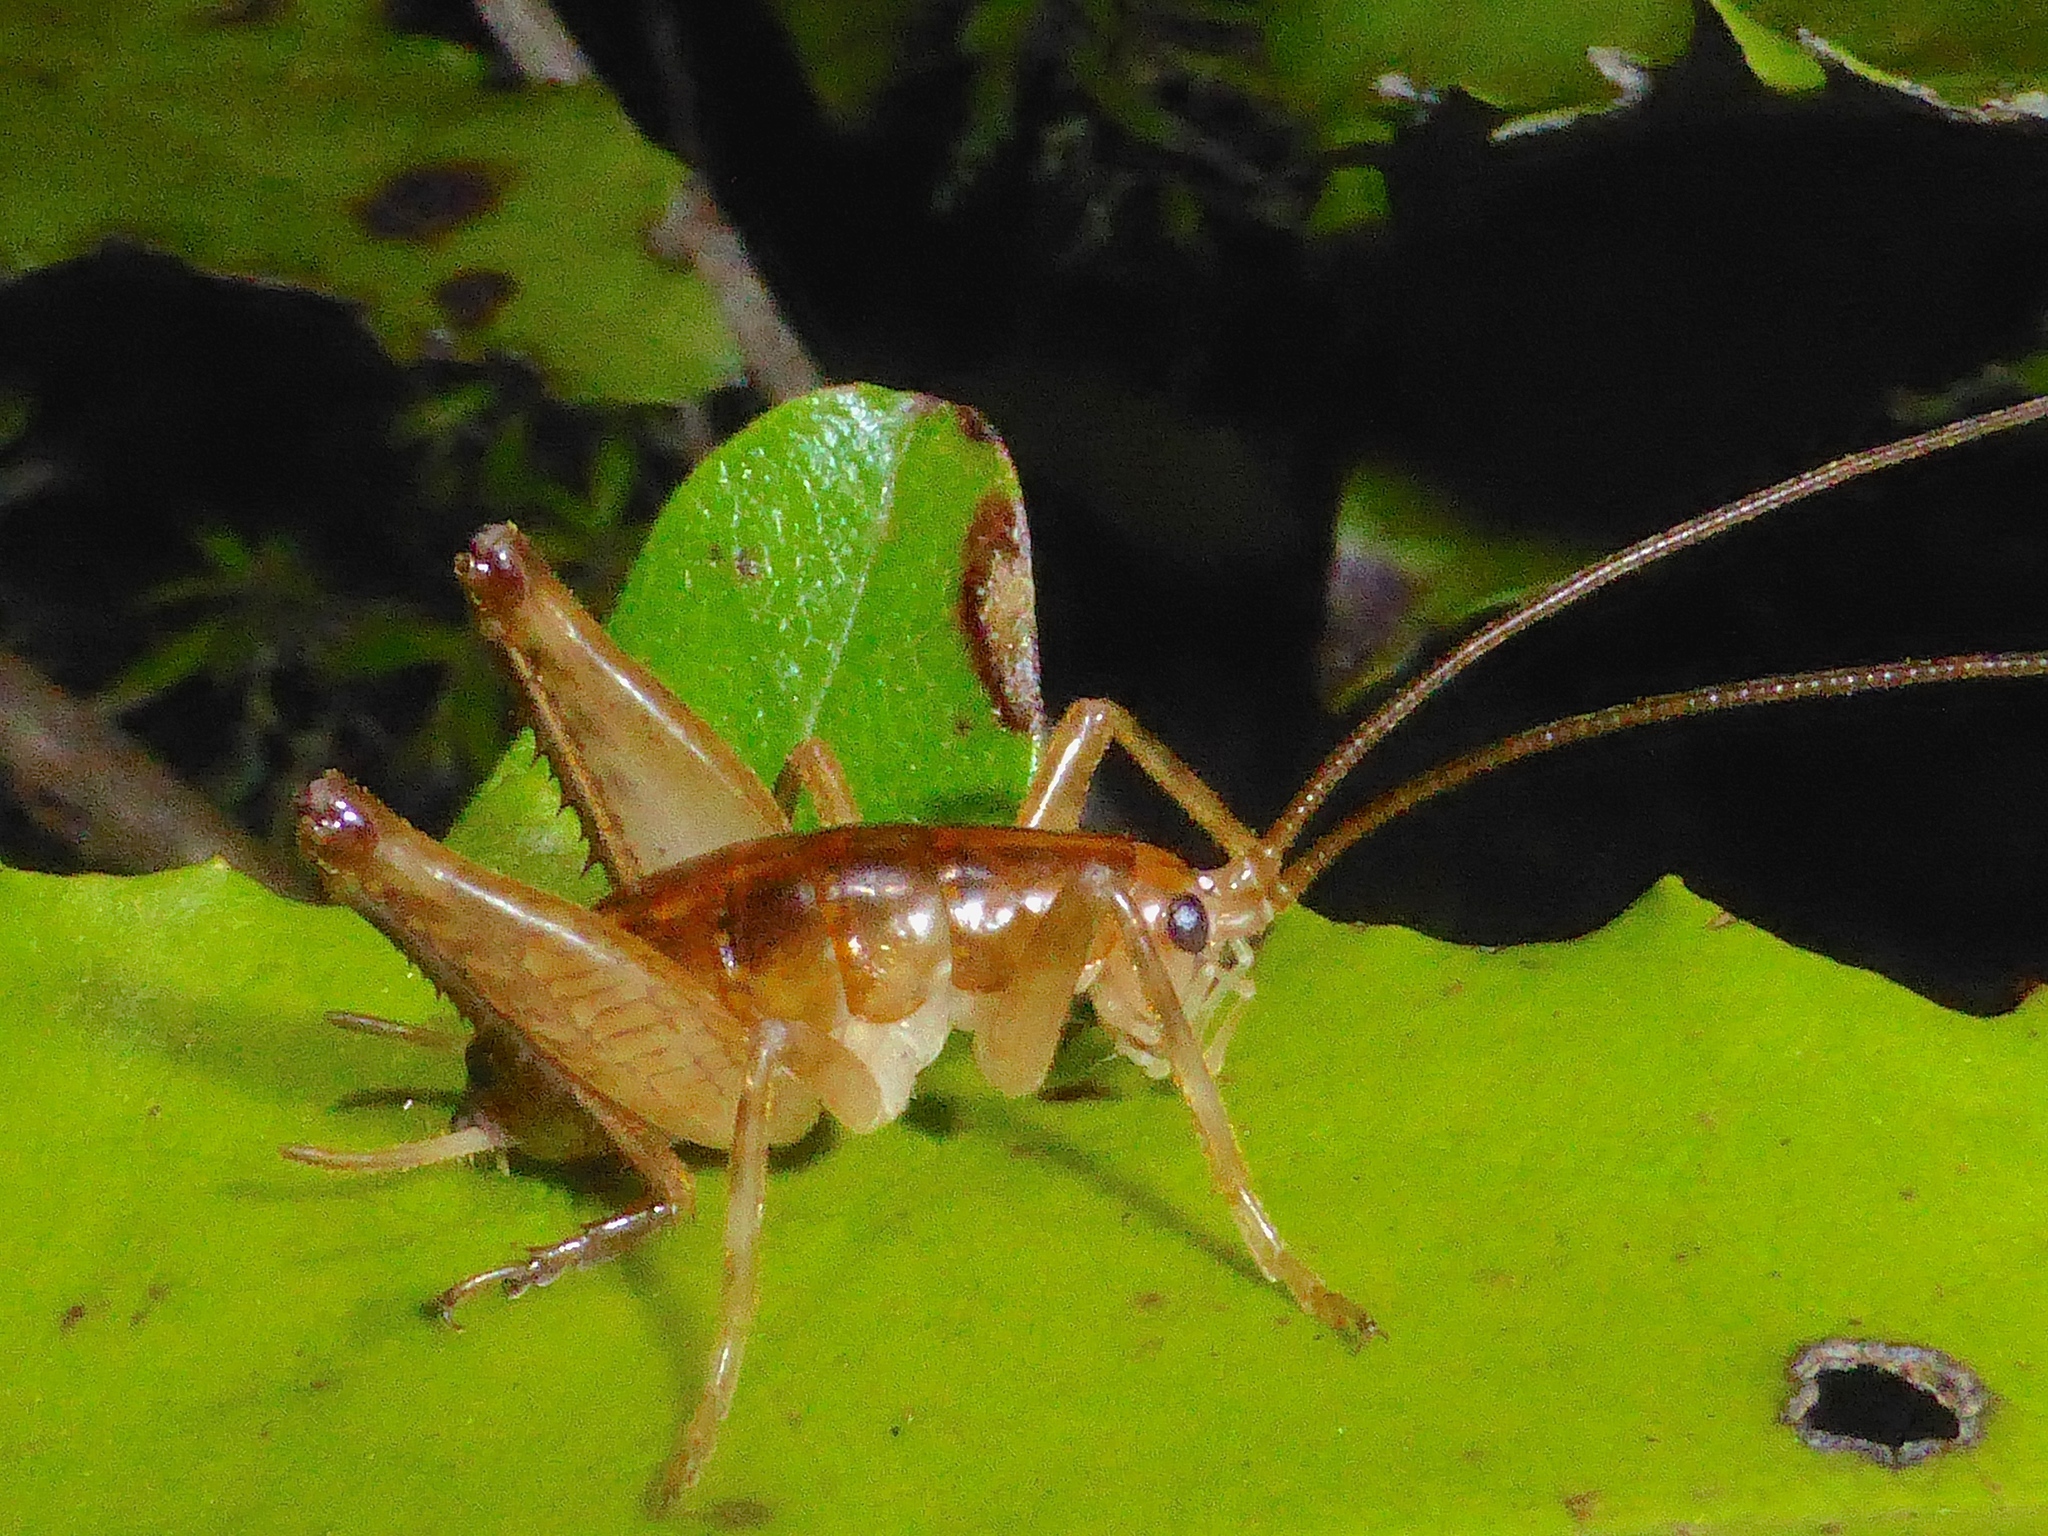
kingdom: Animalia
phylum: Arthropoda
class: Insecta
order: Orthoptera
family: Rhaphidophoridae
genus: Talitropsis
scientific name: Talitropsis sedilloti
